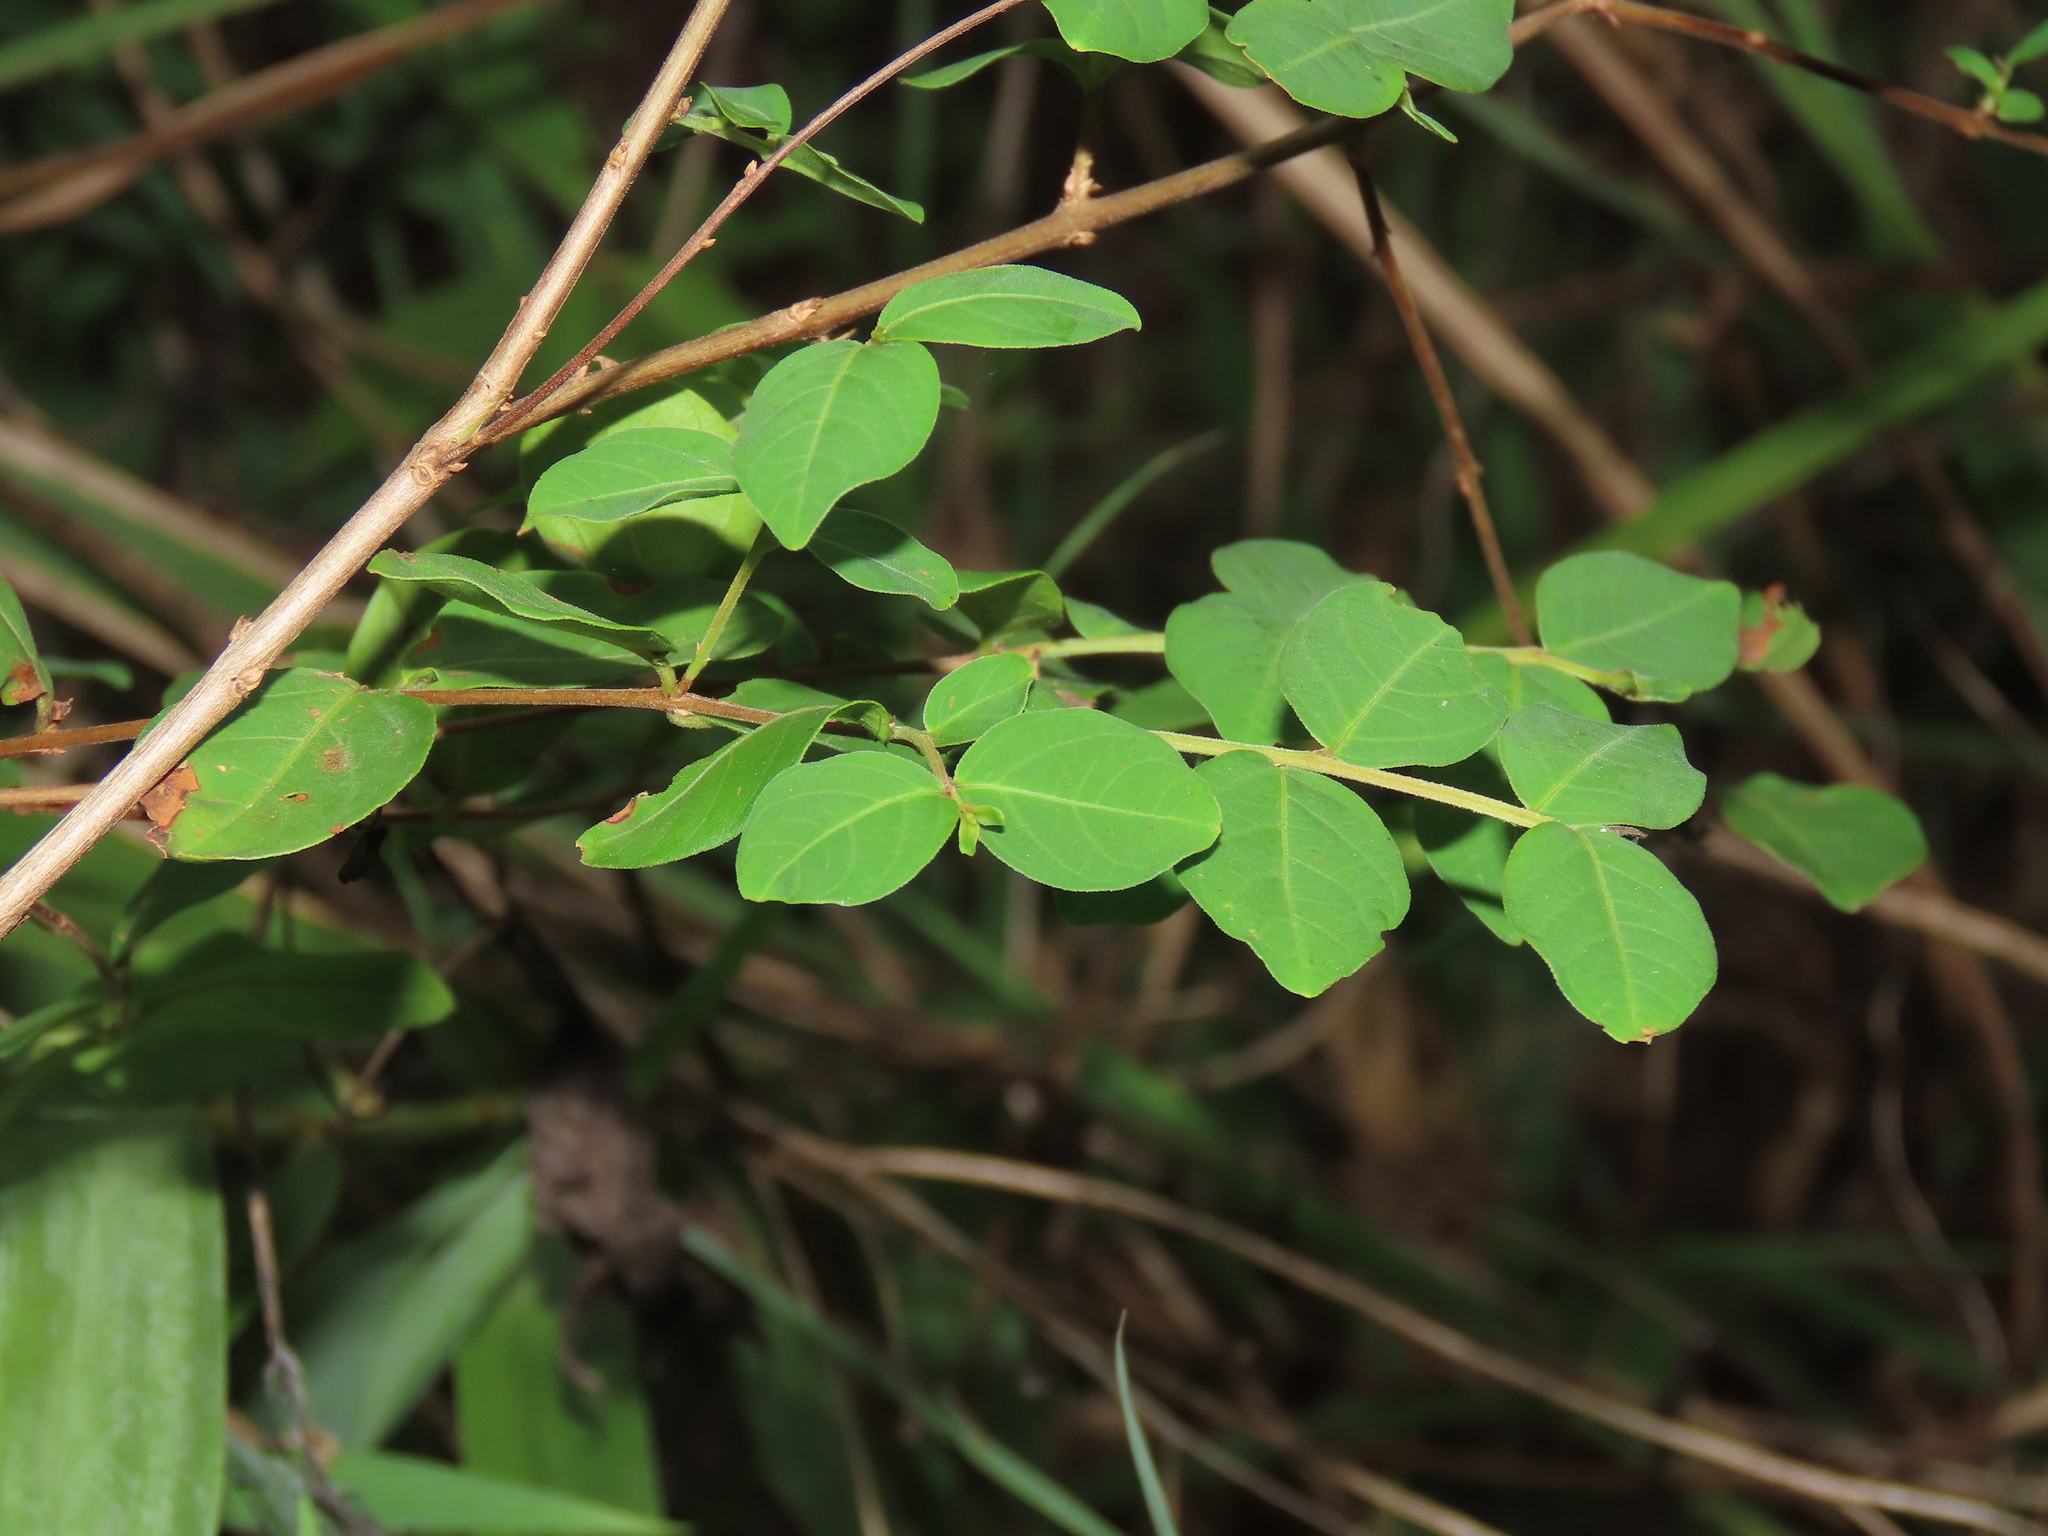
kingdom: Plantae
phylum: Tracheophyta
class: Magnoliopsida
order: Myrtales
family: Lythraceae
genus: Lagerstroemia
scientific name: Lagerstroemia subcostata
